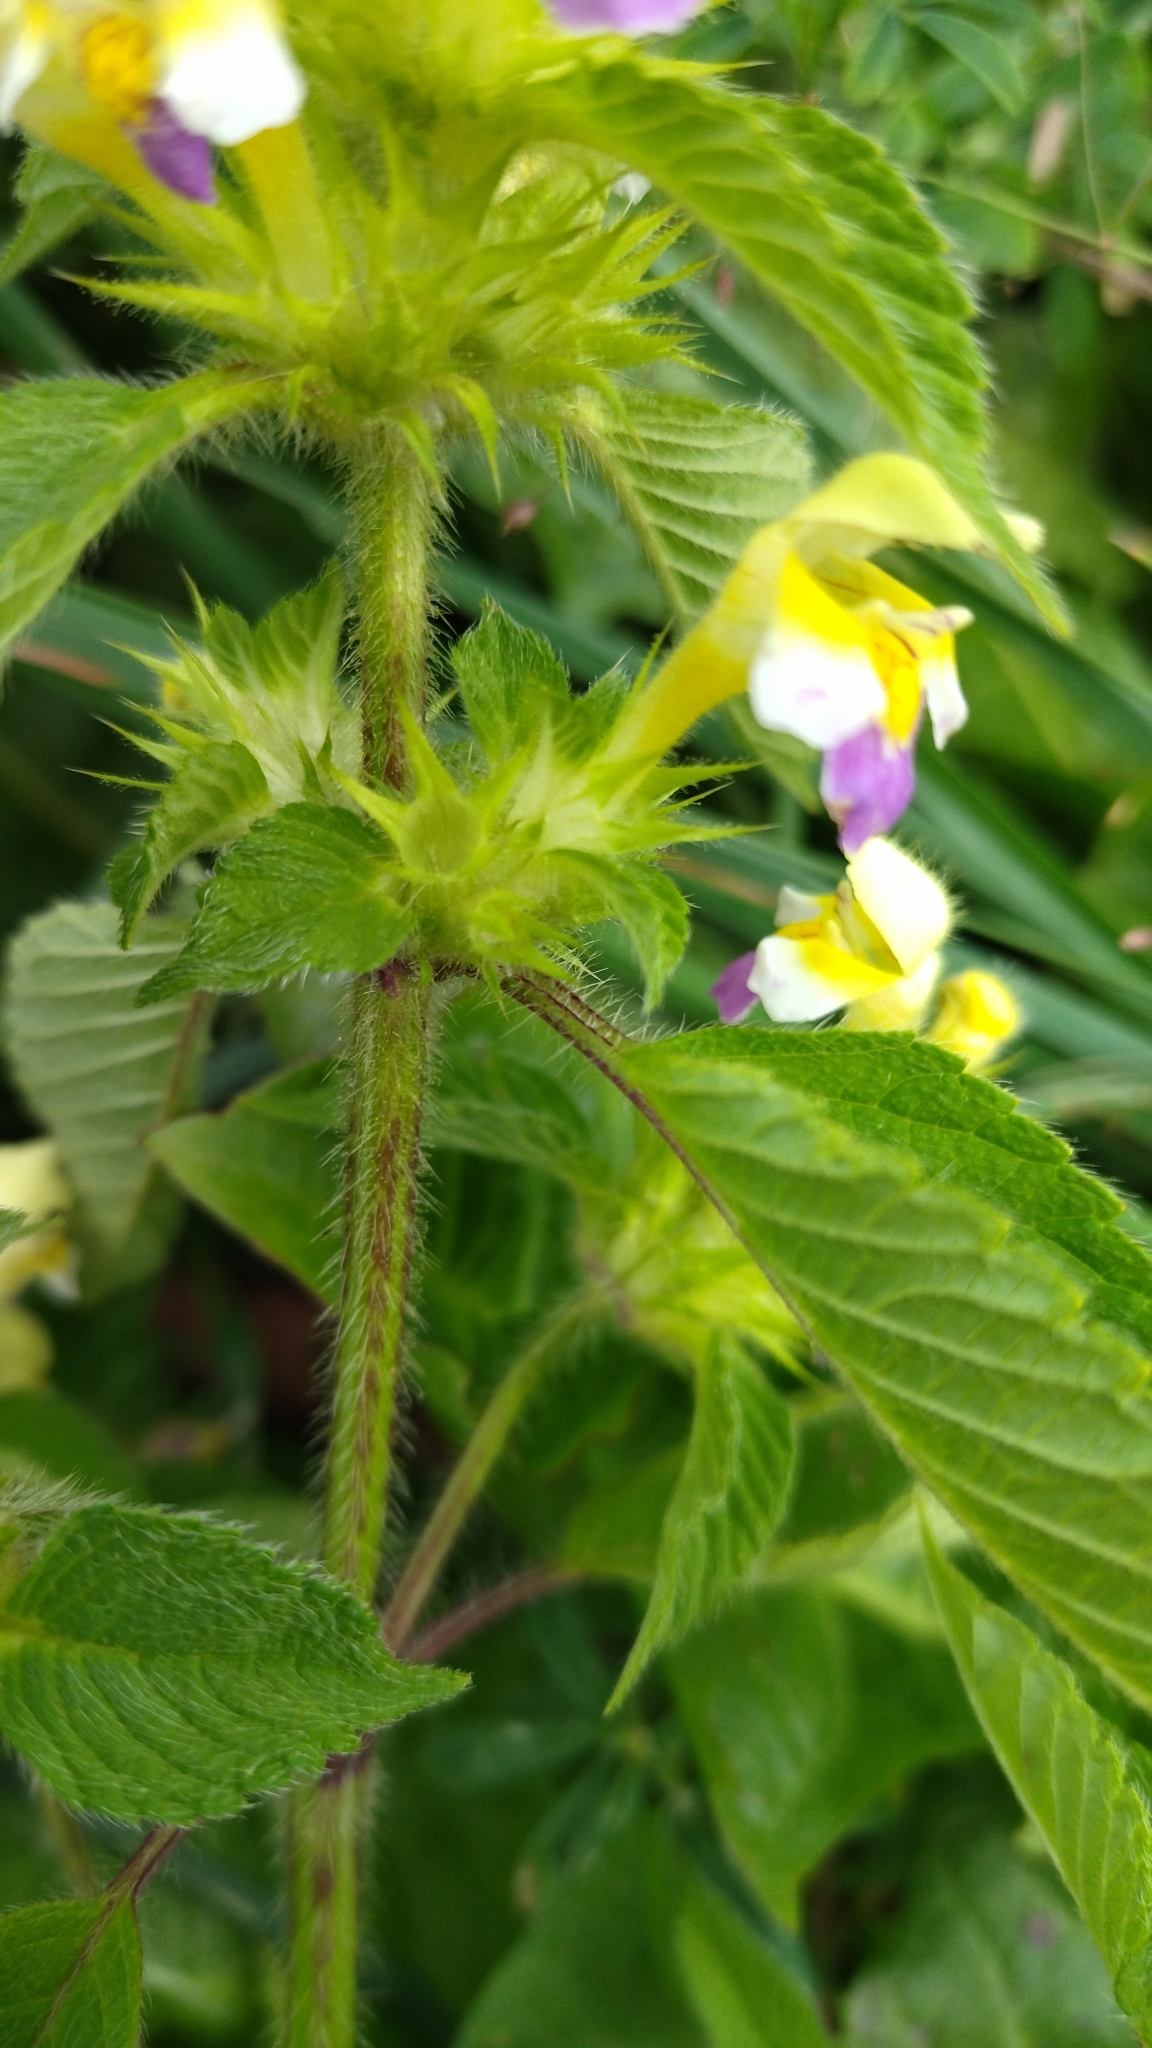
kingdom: Plantae
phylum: Tracheophyta
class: Magnoliopsida
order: Lamiales
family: Lamiaceae
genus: Galeopsis
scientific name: Galeopsis speciosa
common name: Large-flowered hemp-nettle
